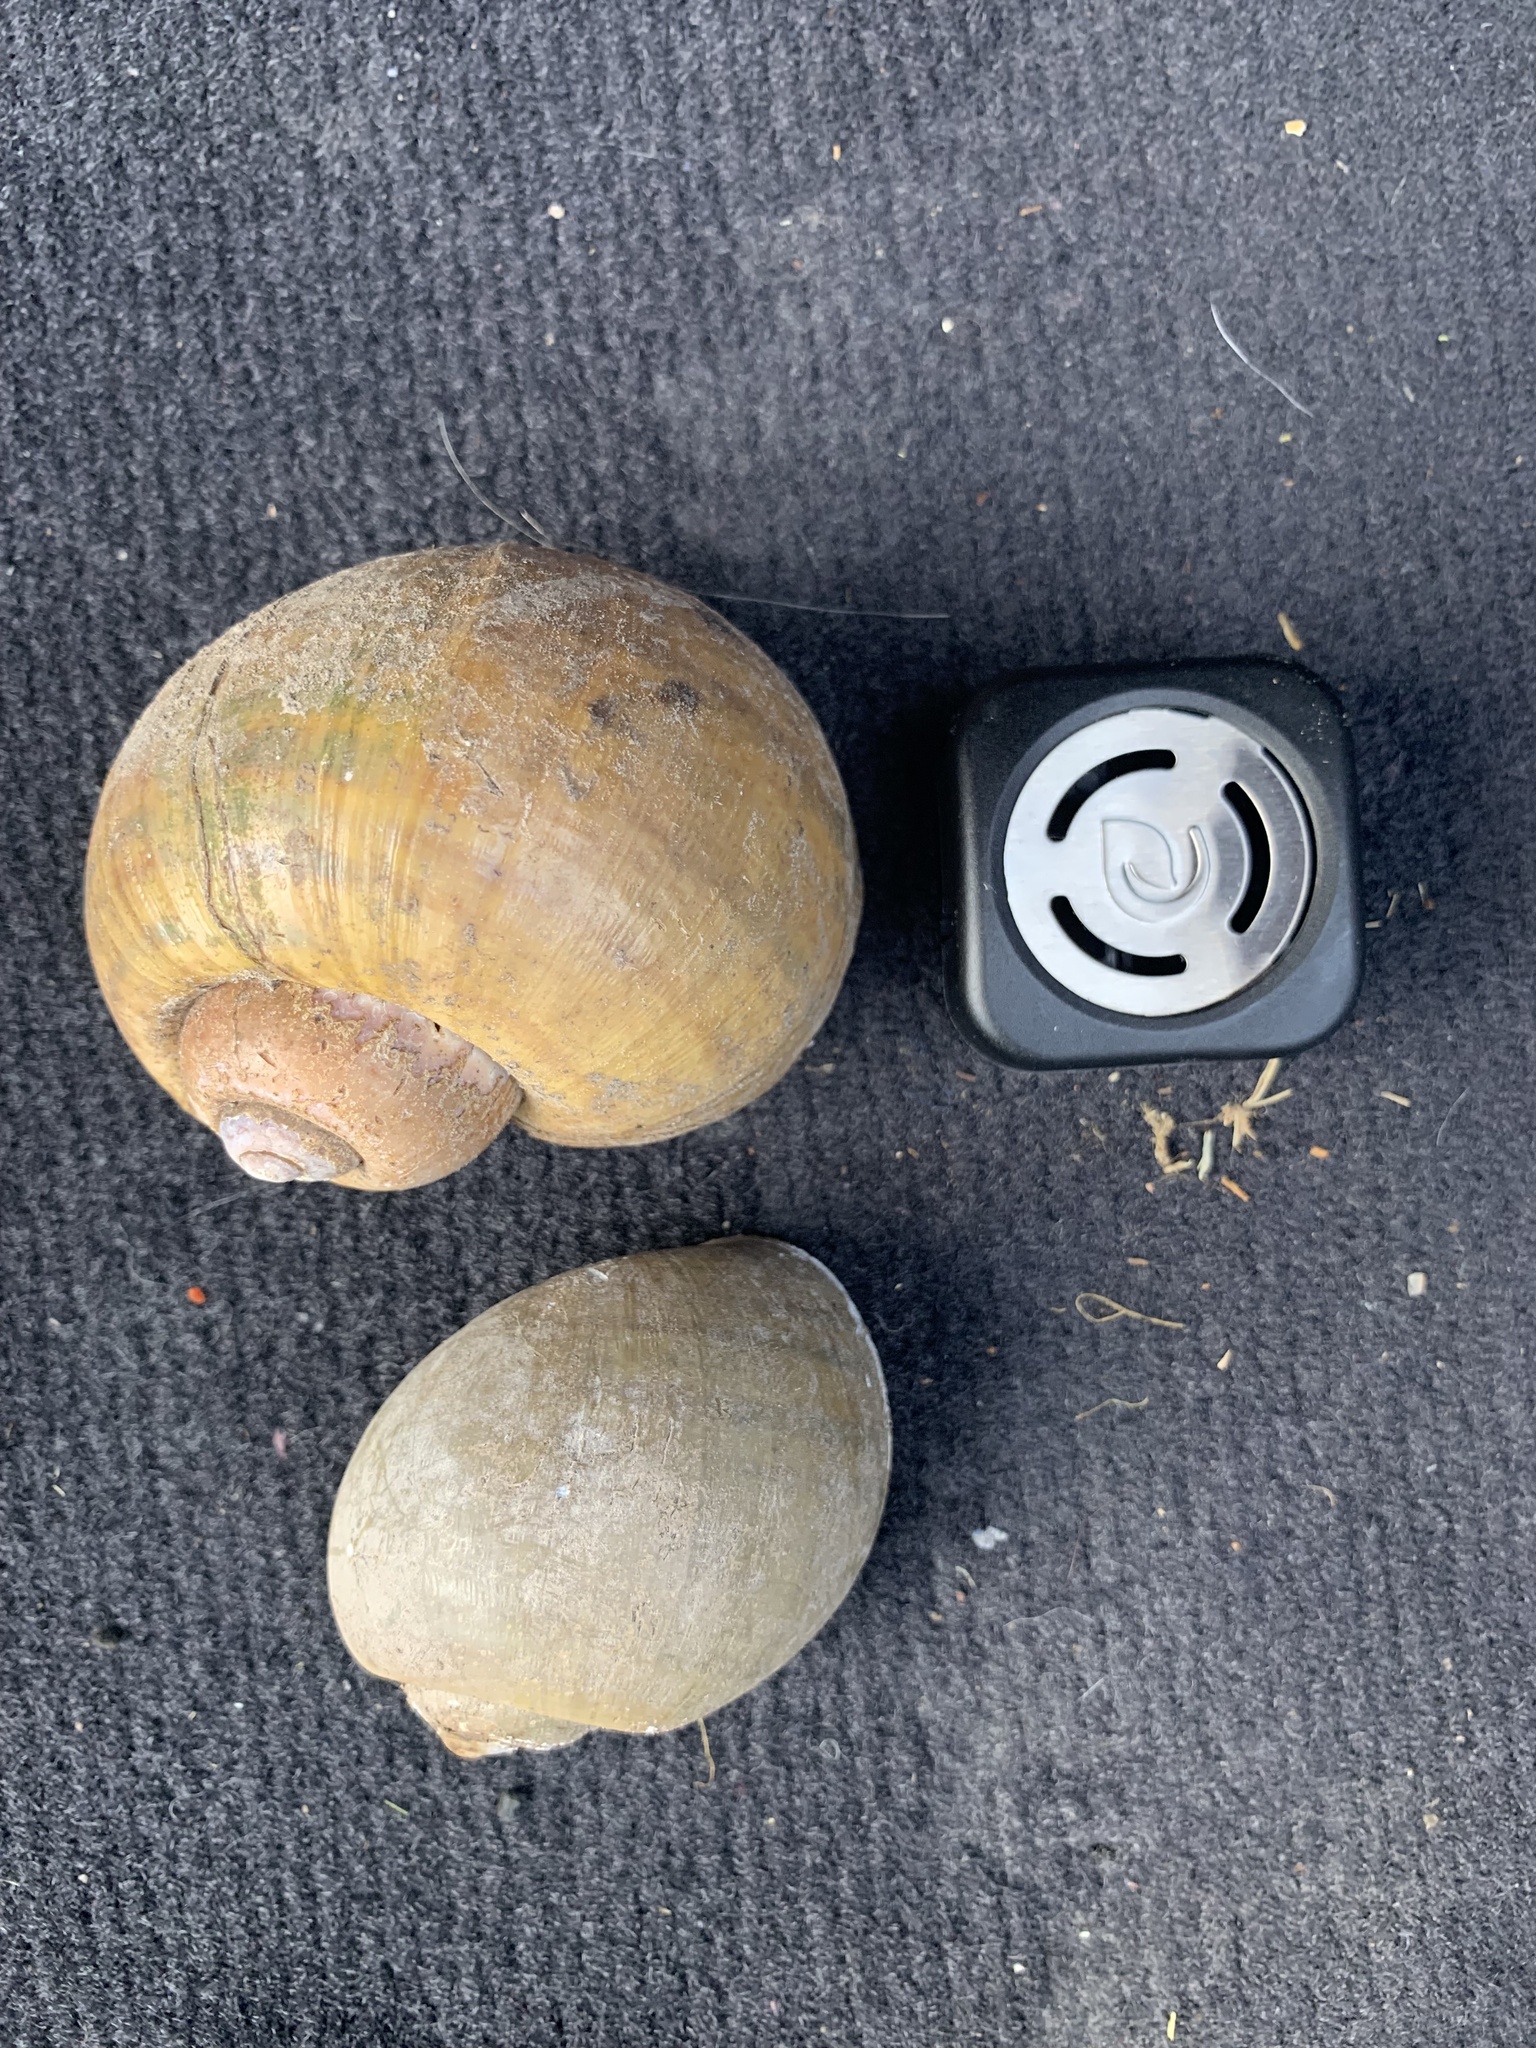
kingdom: Animalia
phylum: Mollusca
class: Gastropoda
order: Architaenioglossa
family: Ampullariidae
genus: Pomacea
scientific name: Pomacea maculata
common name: Giant applesnail
